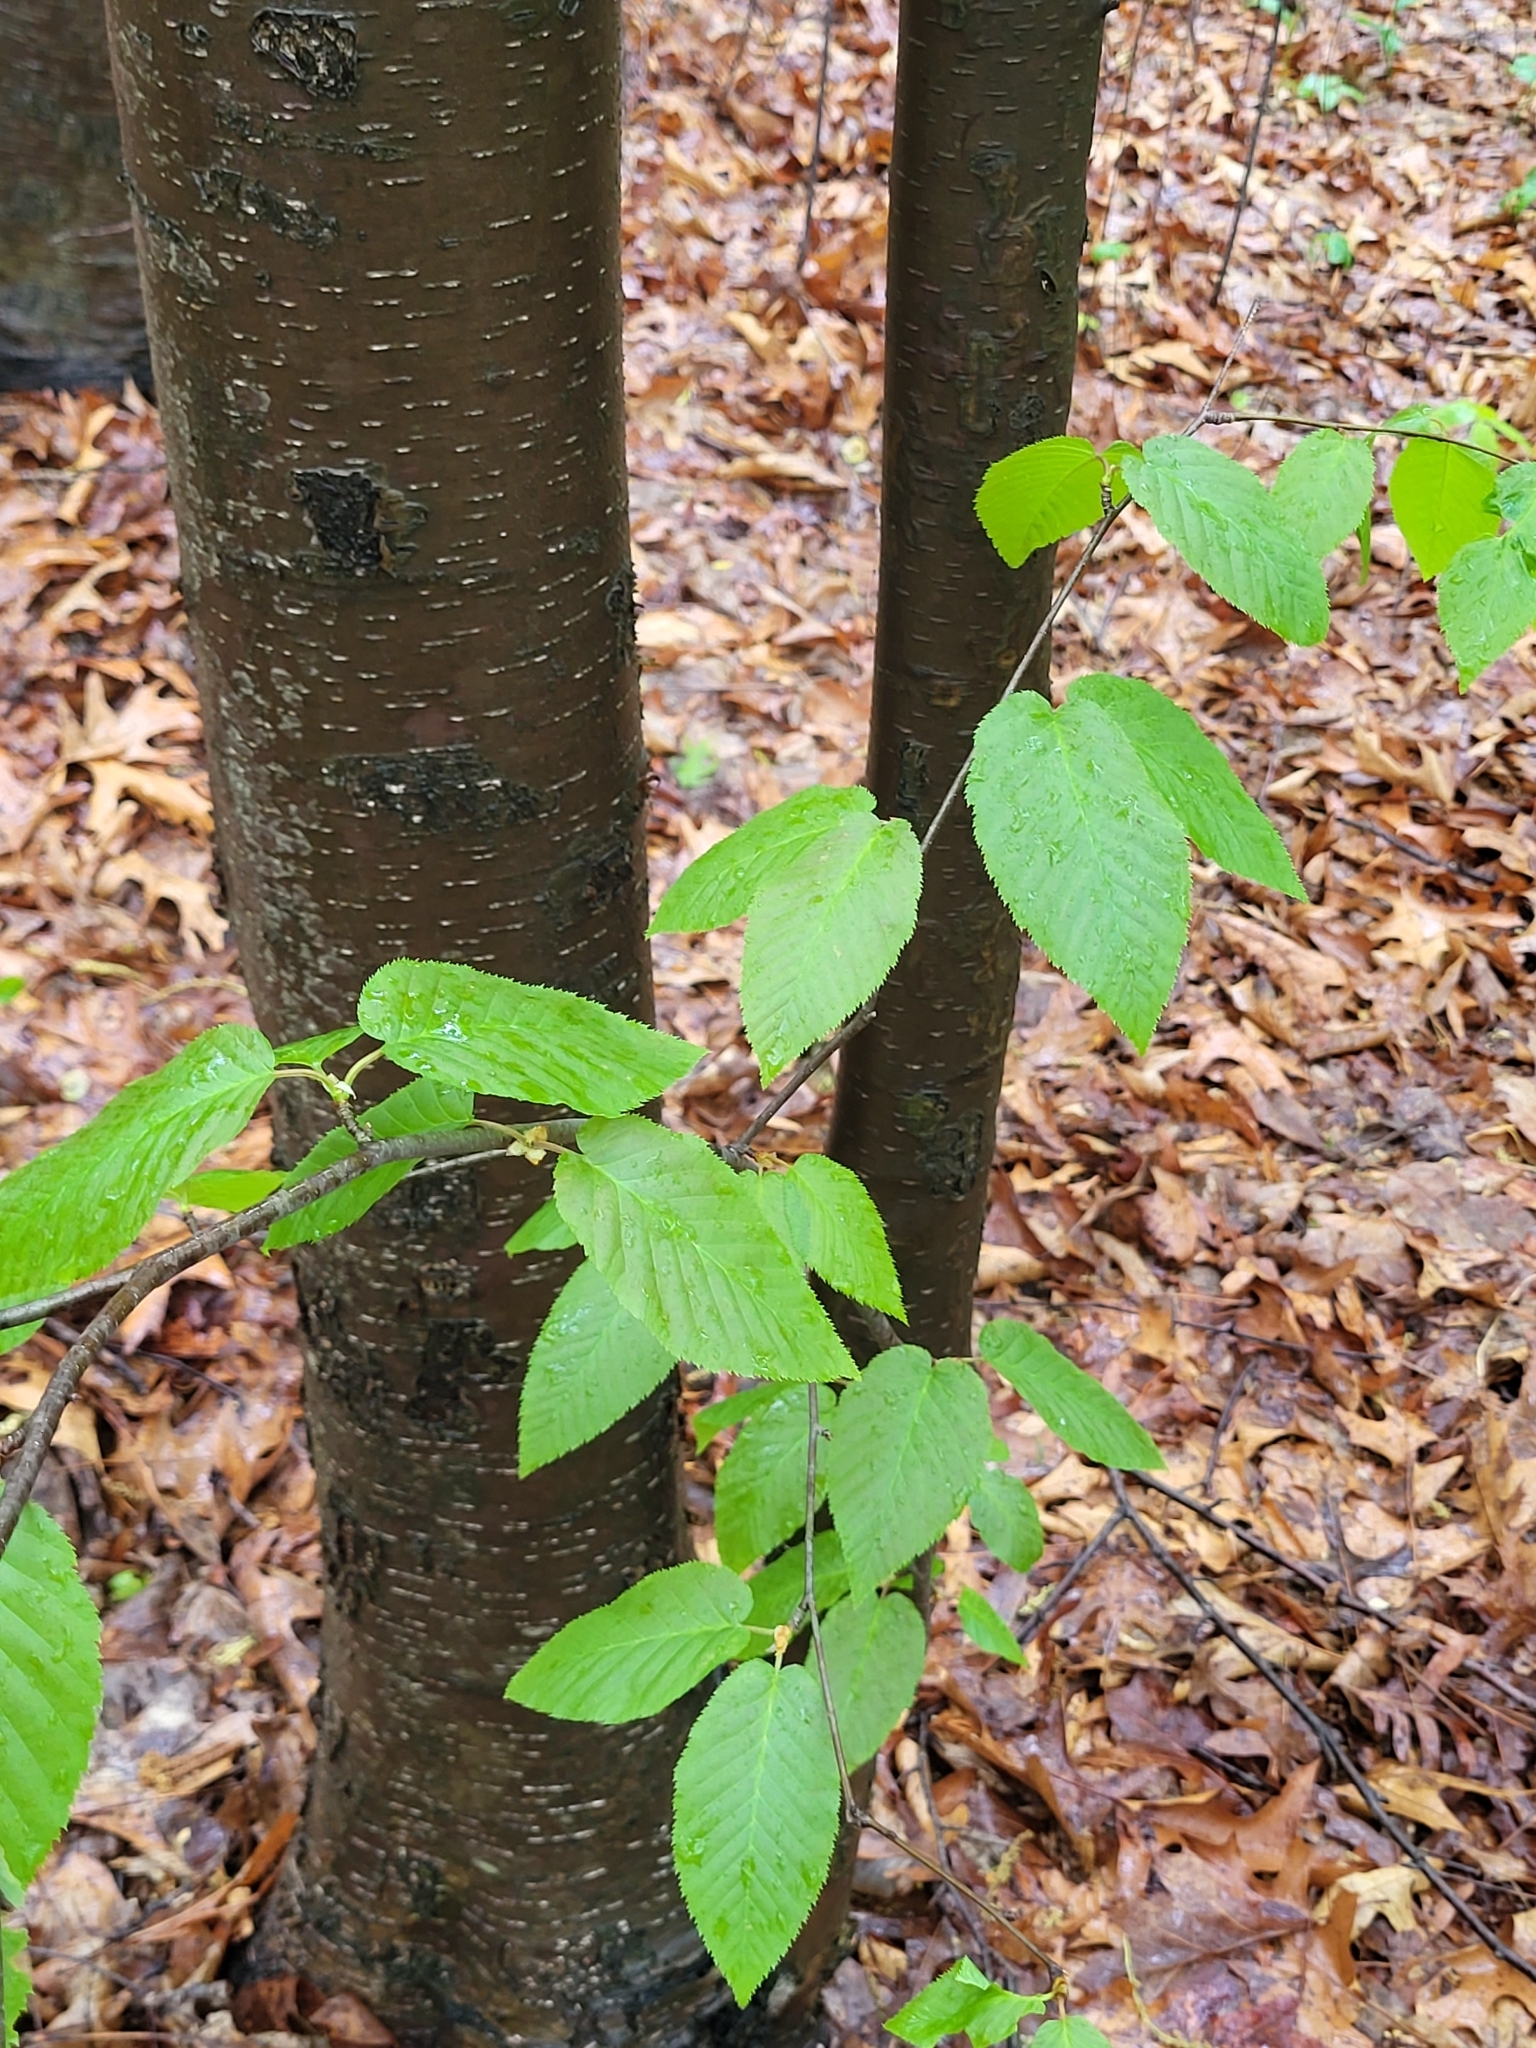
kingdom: Plantae
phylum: Tracheophyta
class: Magnoliopsida
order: Fagales
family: Betulaceae
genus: Betula
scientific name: Betula lenta
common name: Black birch
